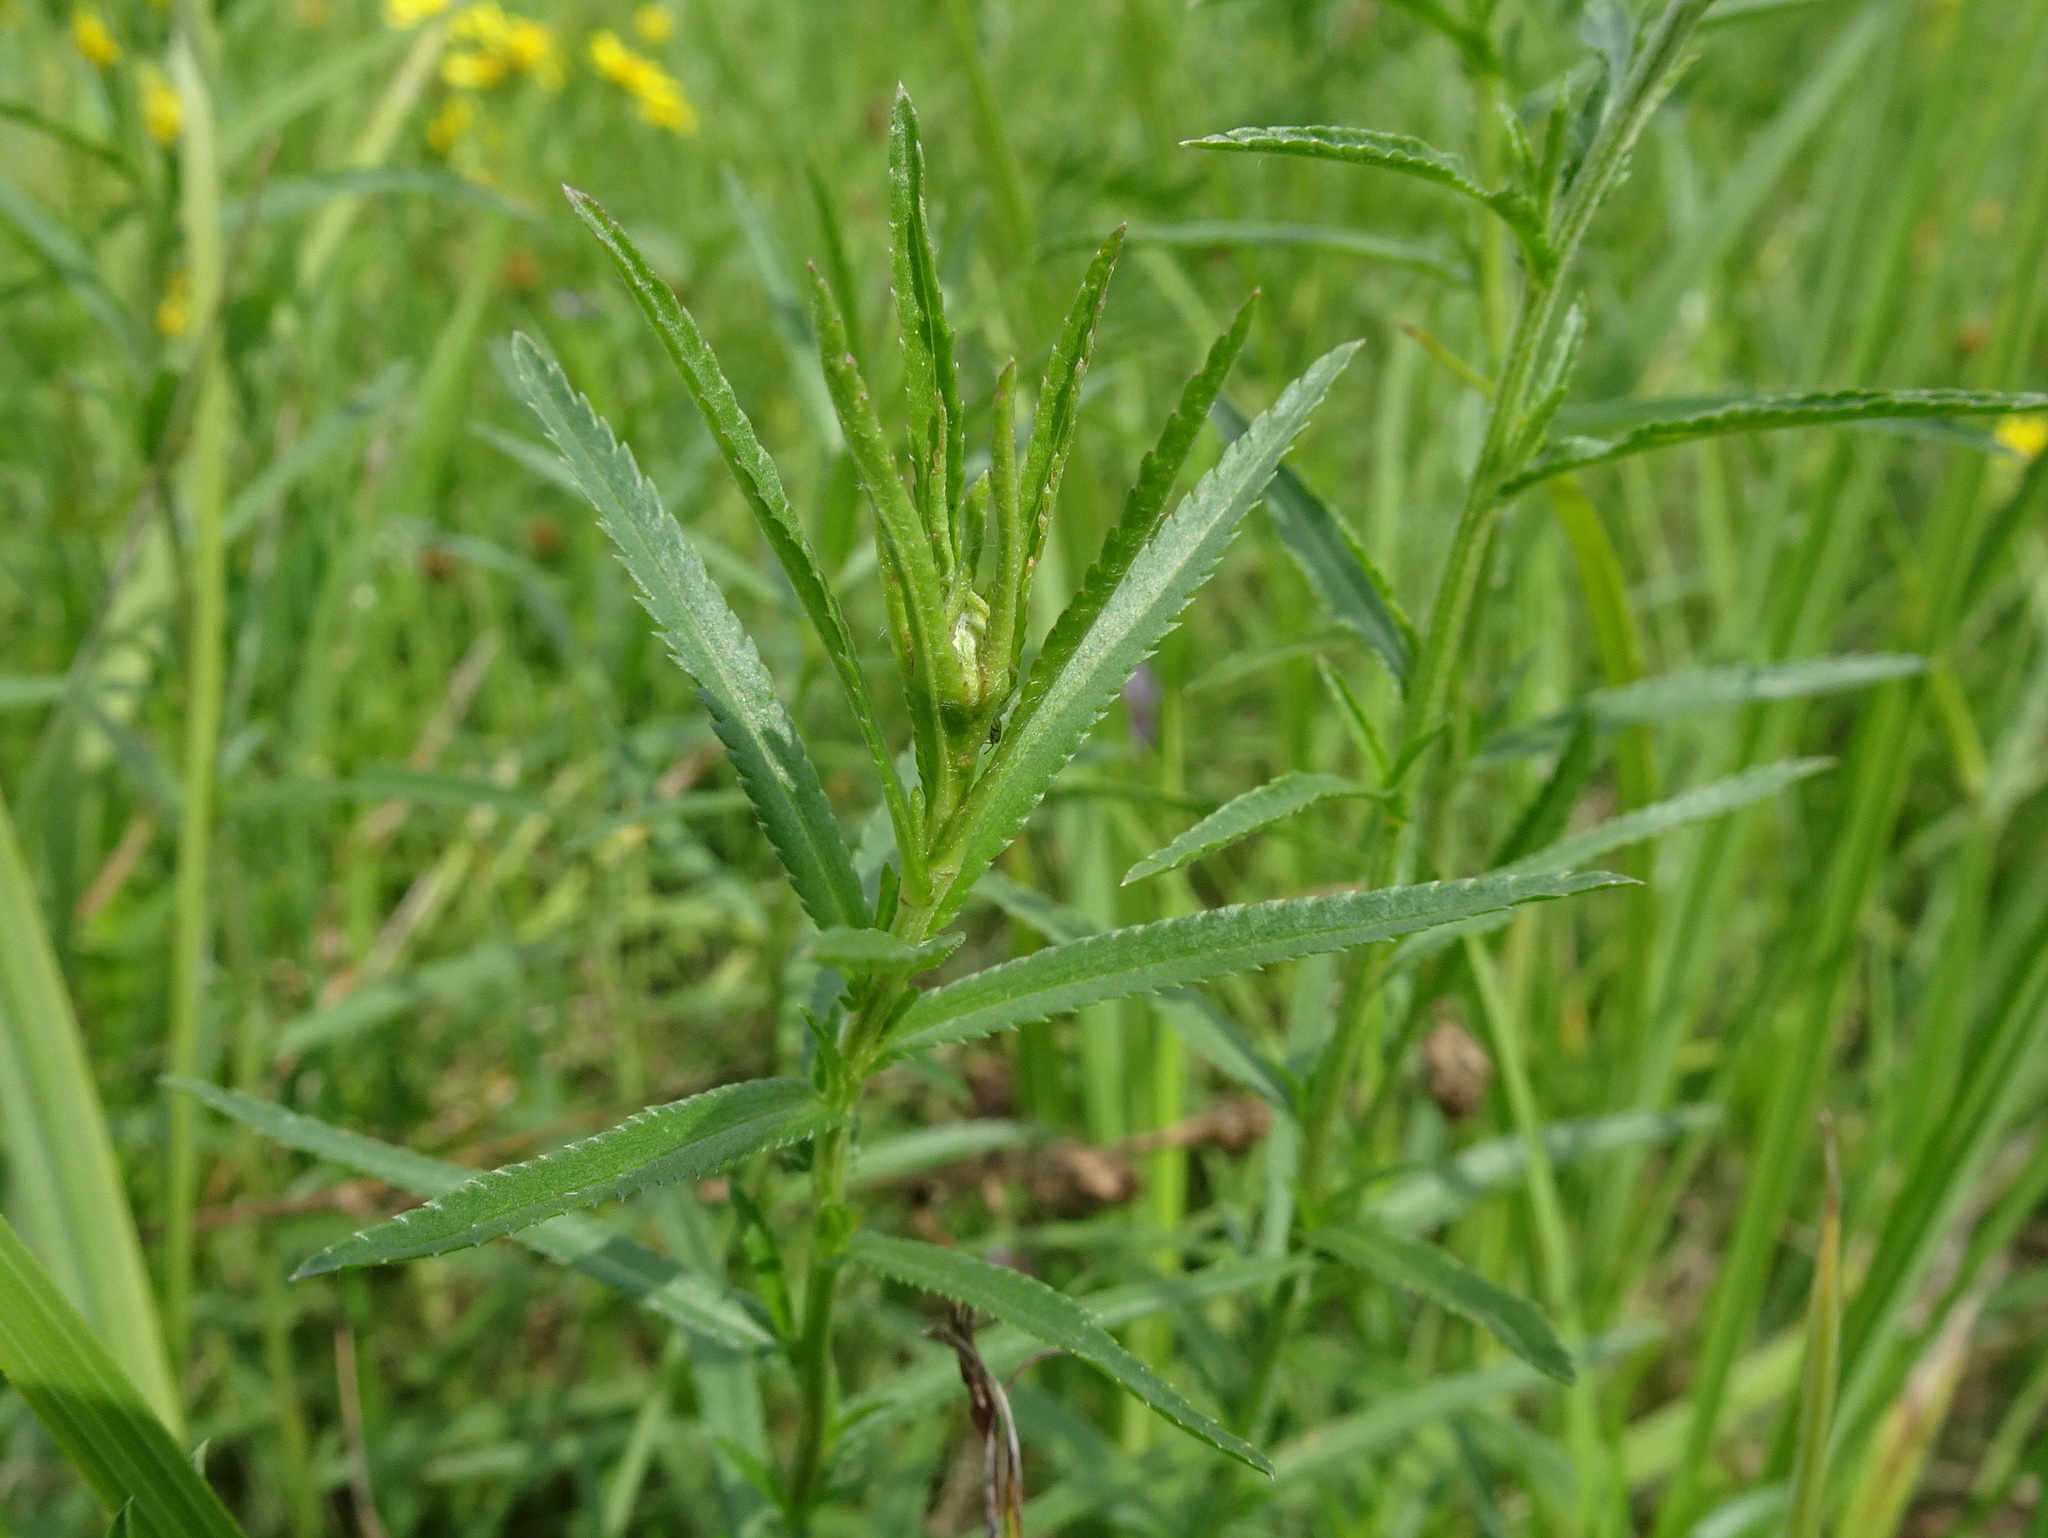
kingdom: Plantae
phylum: Tracheophyta
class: Magnoliopsida
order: Asterales
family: Asteraceae
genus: Achillea
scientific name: Achillea ptarmica
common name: Sneezeweed
